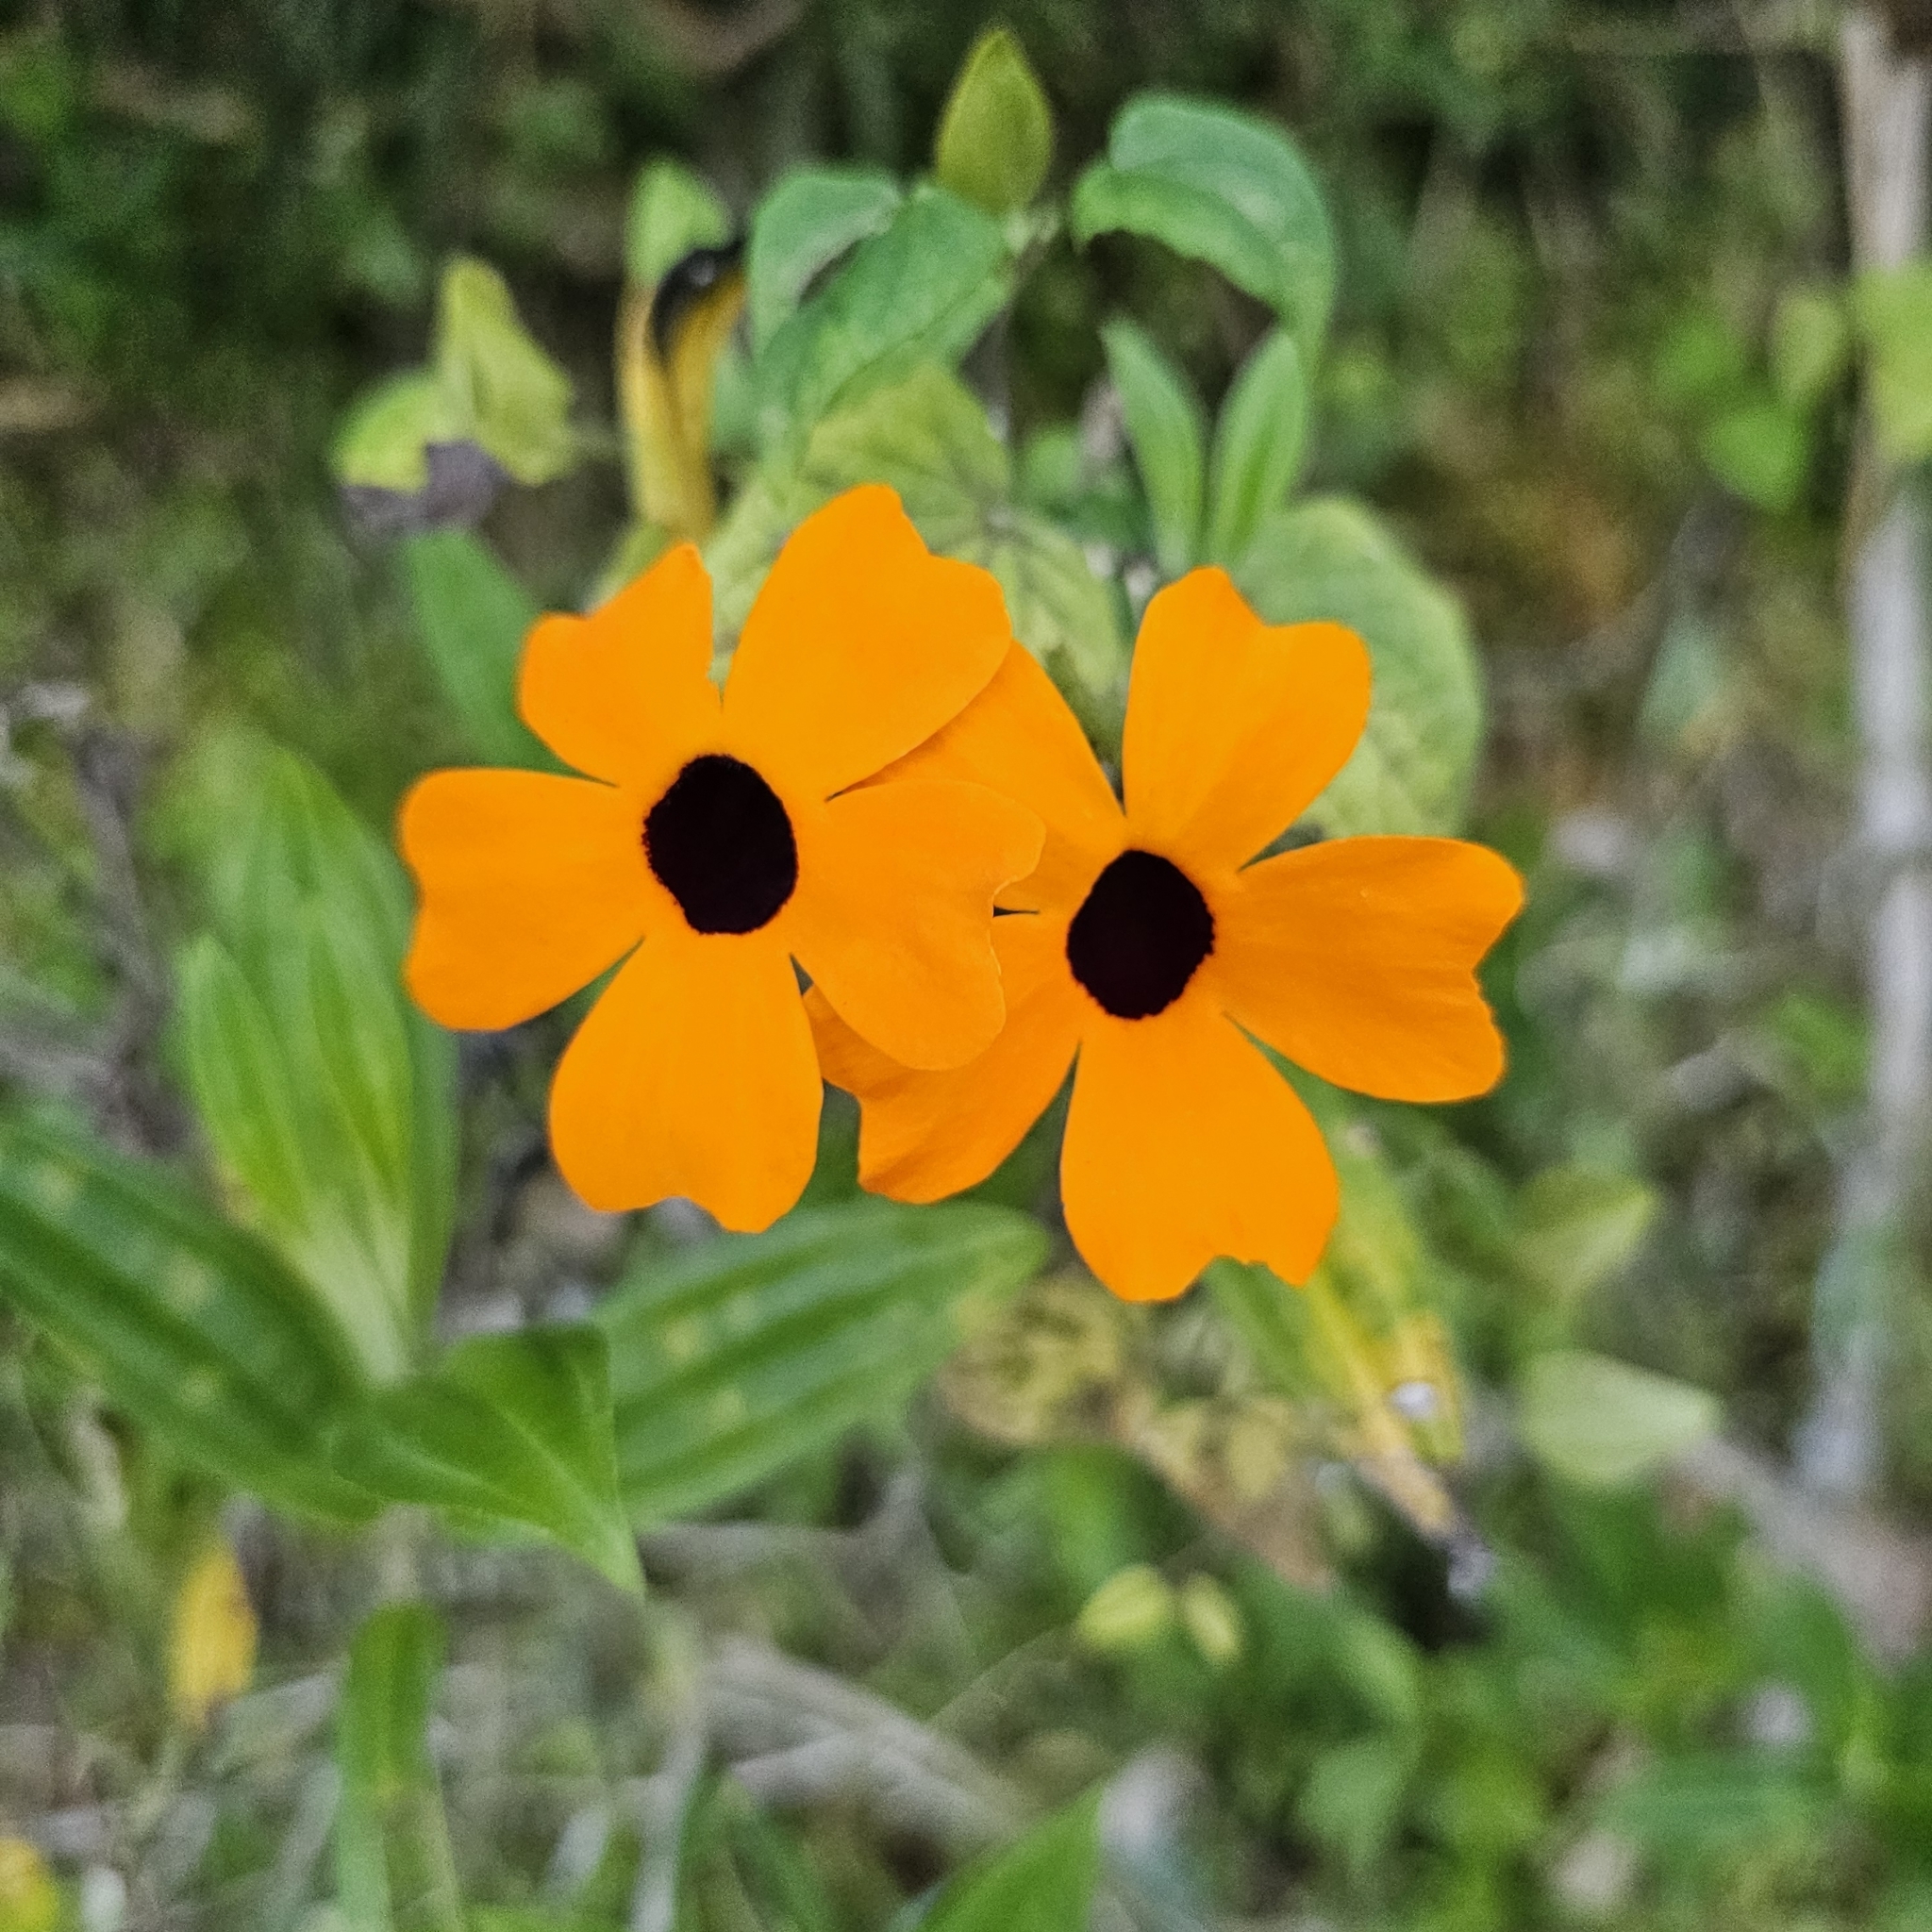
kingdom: Plantae
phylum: Tracheophyta
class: Magnoliopsida
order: Lamiales
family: Acanthaceae
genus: Thunbergia
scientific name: Thunbergia alata
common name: Blackeyed susan vine
